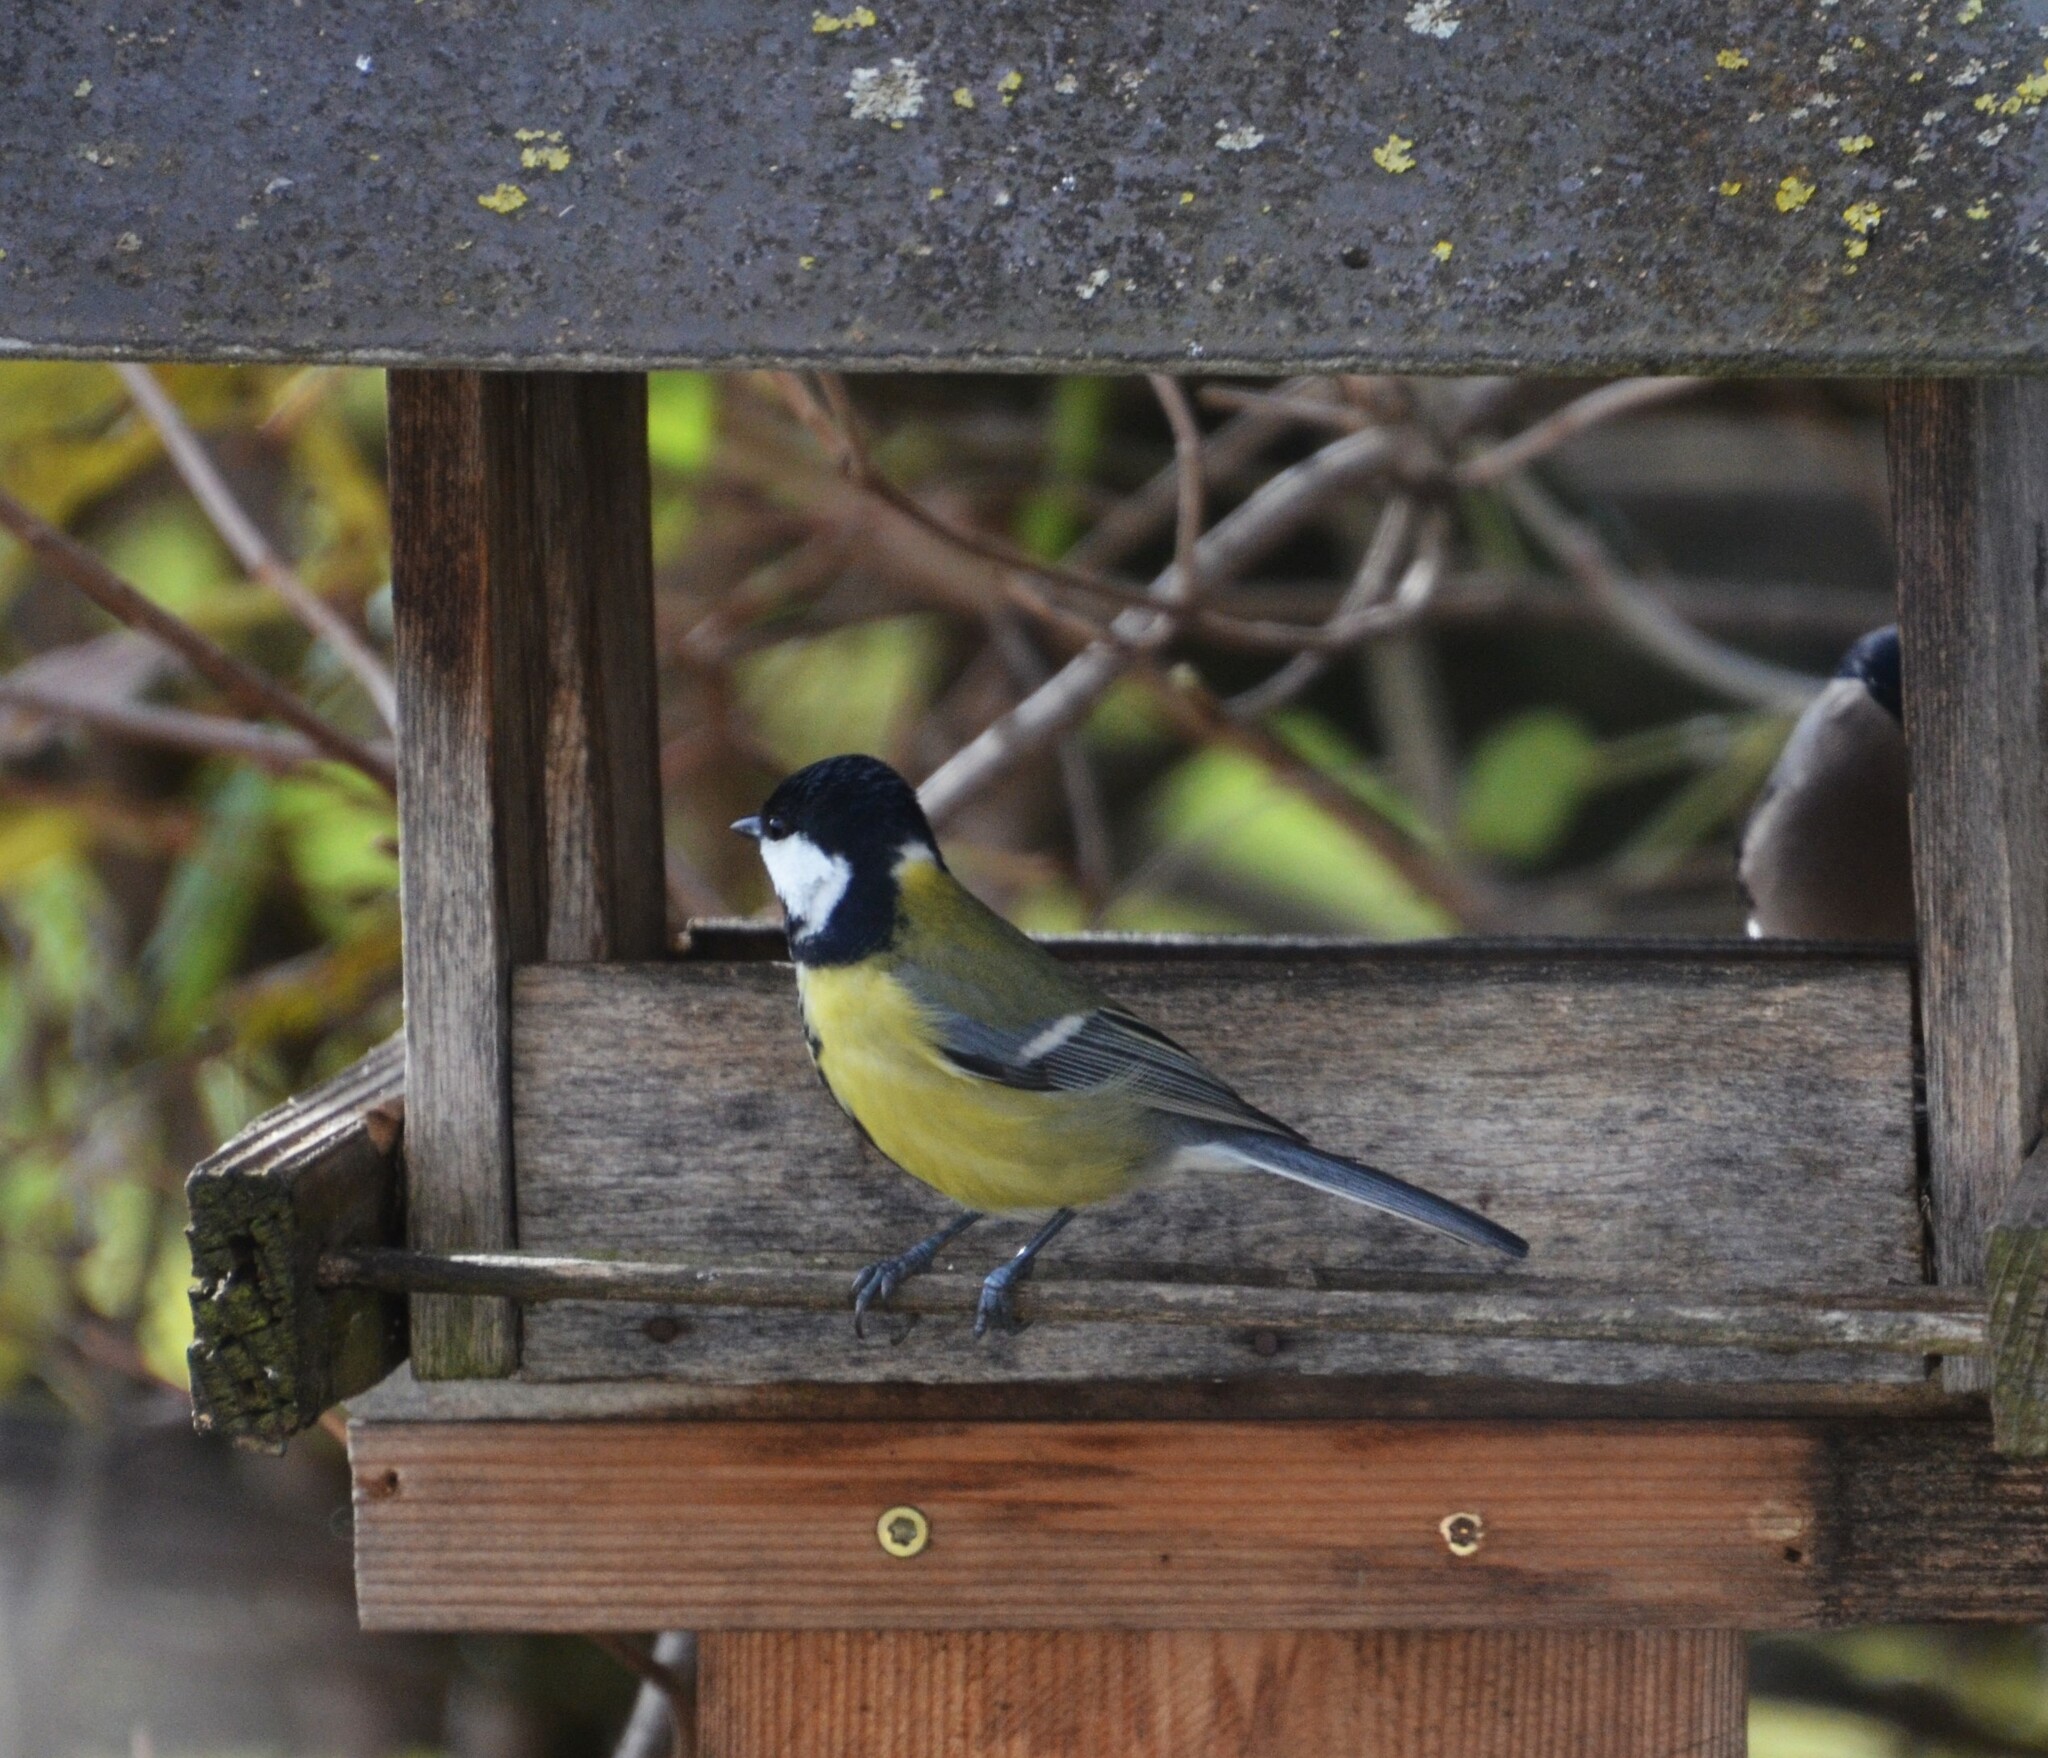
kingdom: Animalia
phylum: Chordata
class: Aves
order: Passeriformes
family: Paridae
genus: Parus
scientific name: Parus major
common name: Great tit
